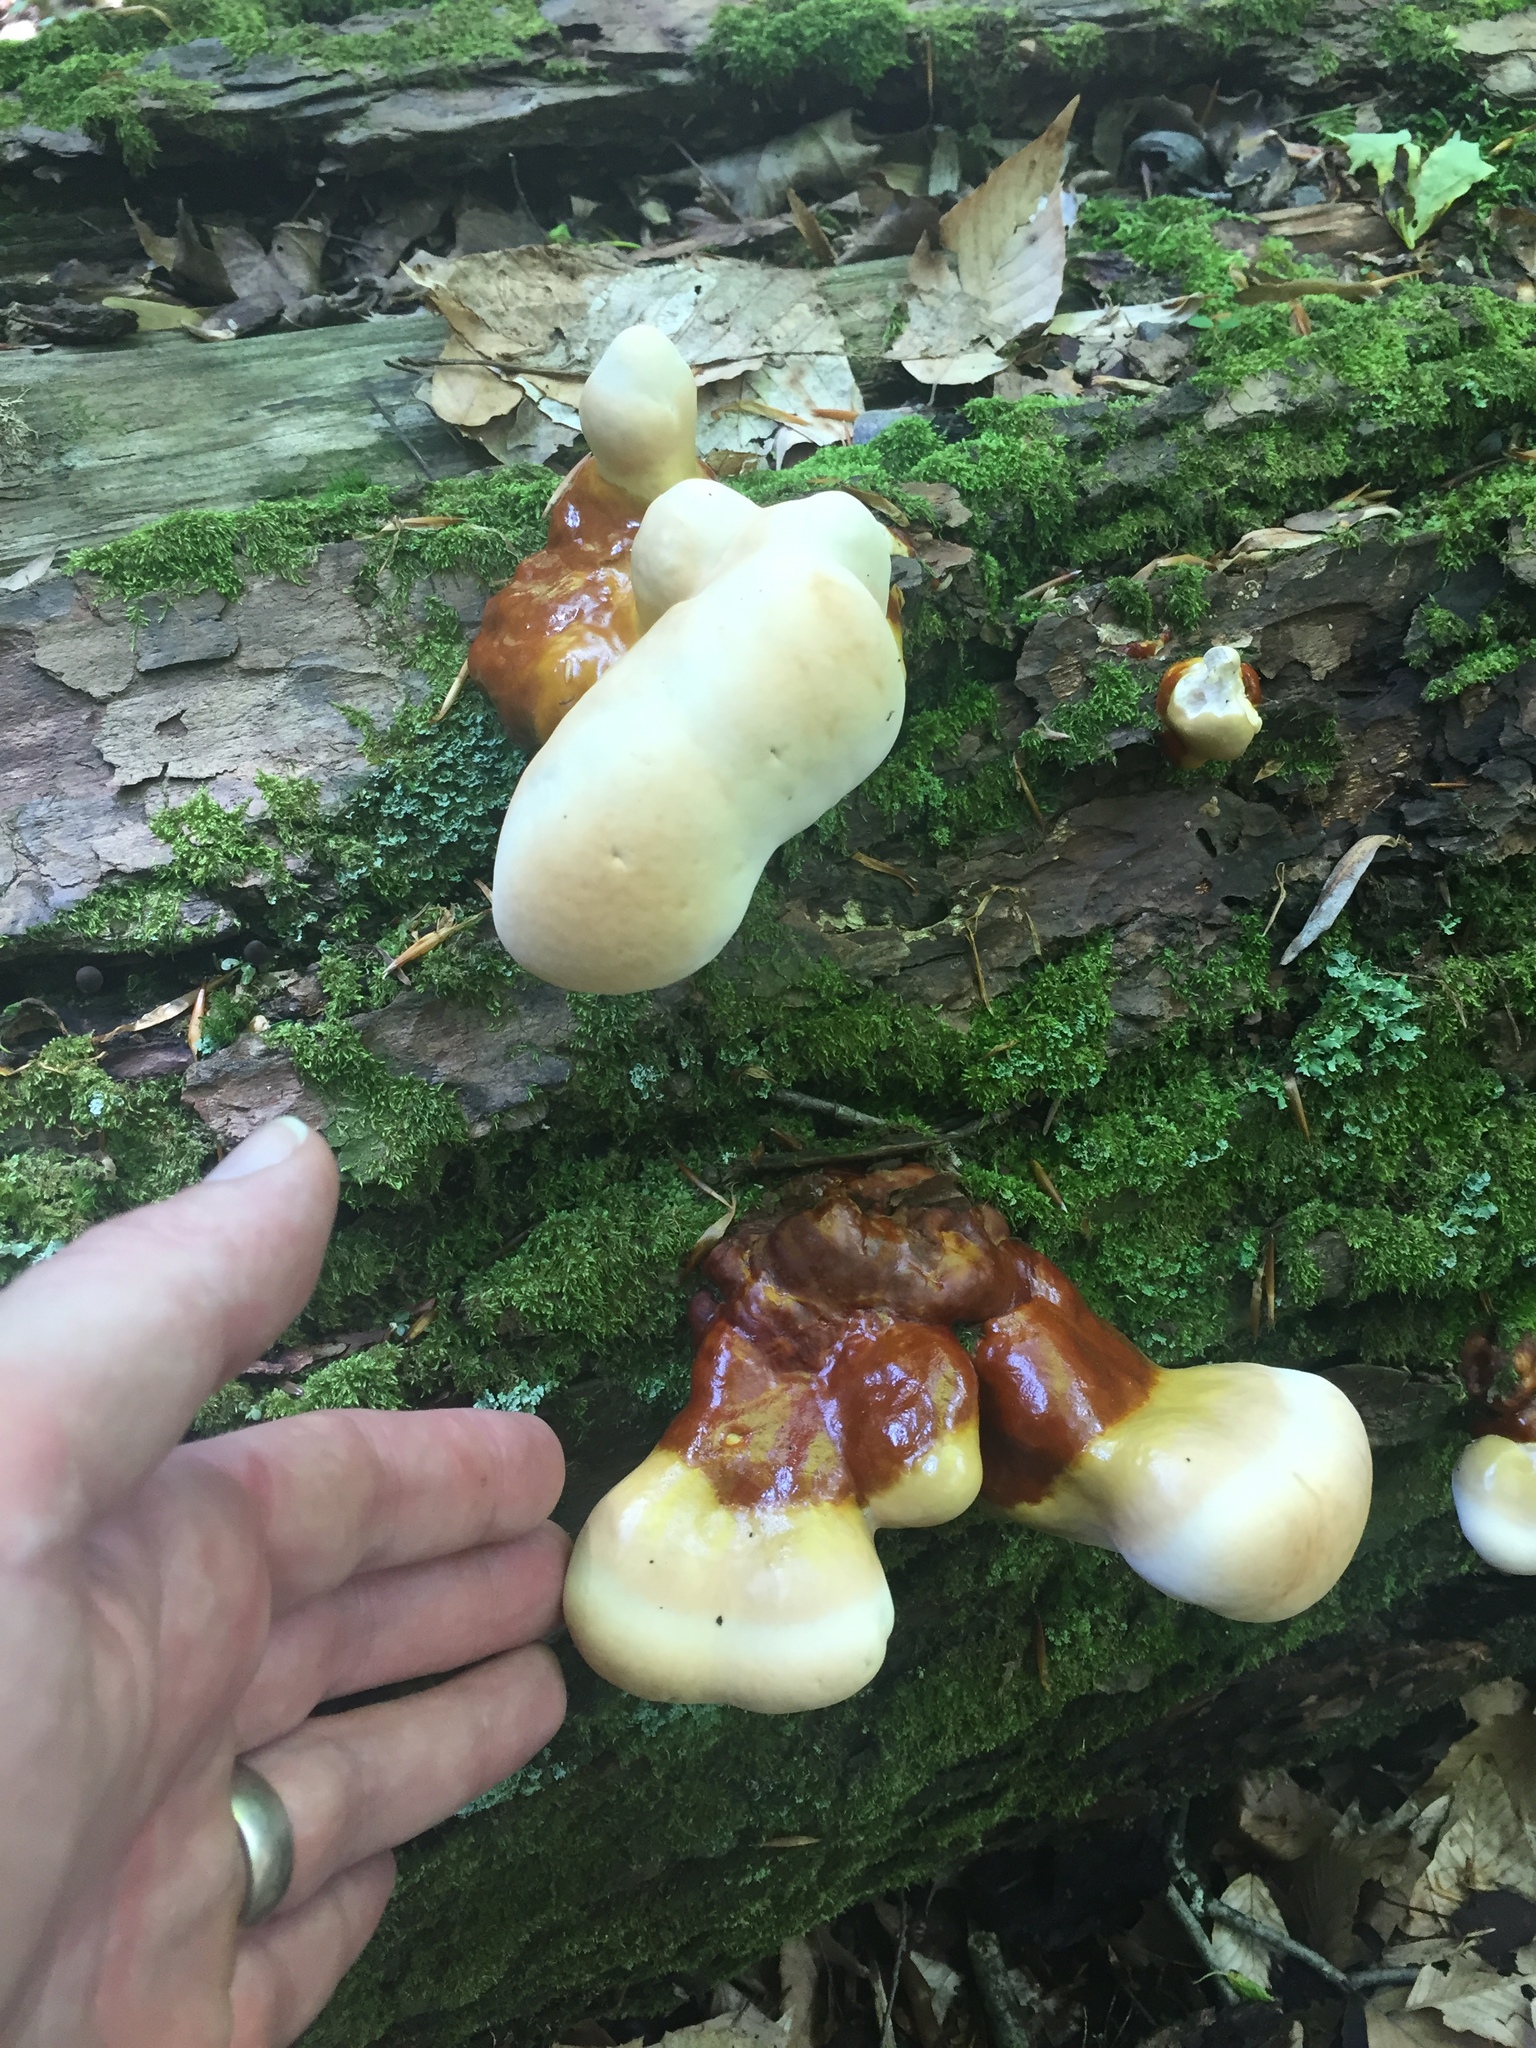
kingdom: Fungi
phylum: Basidiomycota
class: Agaricomycetes
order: Polyporales
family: Polyporaceae
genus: Ganoderma
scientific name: Ganoderma tsugae
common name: Hemlock varnish shelf
